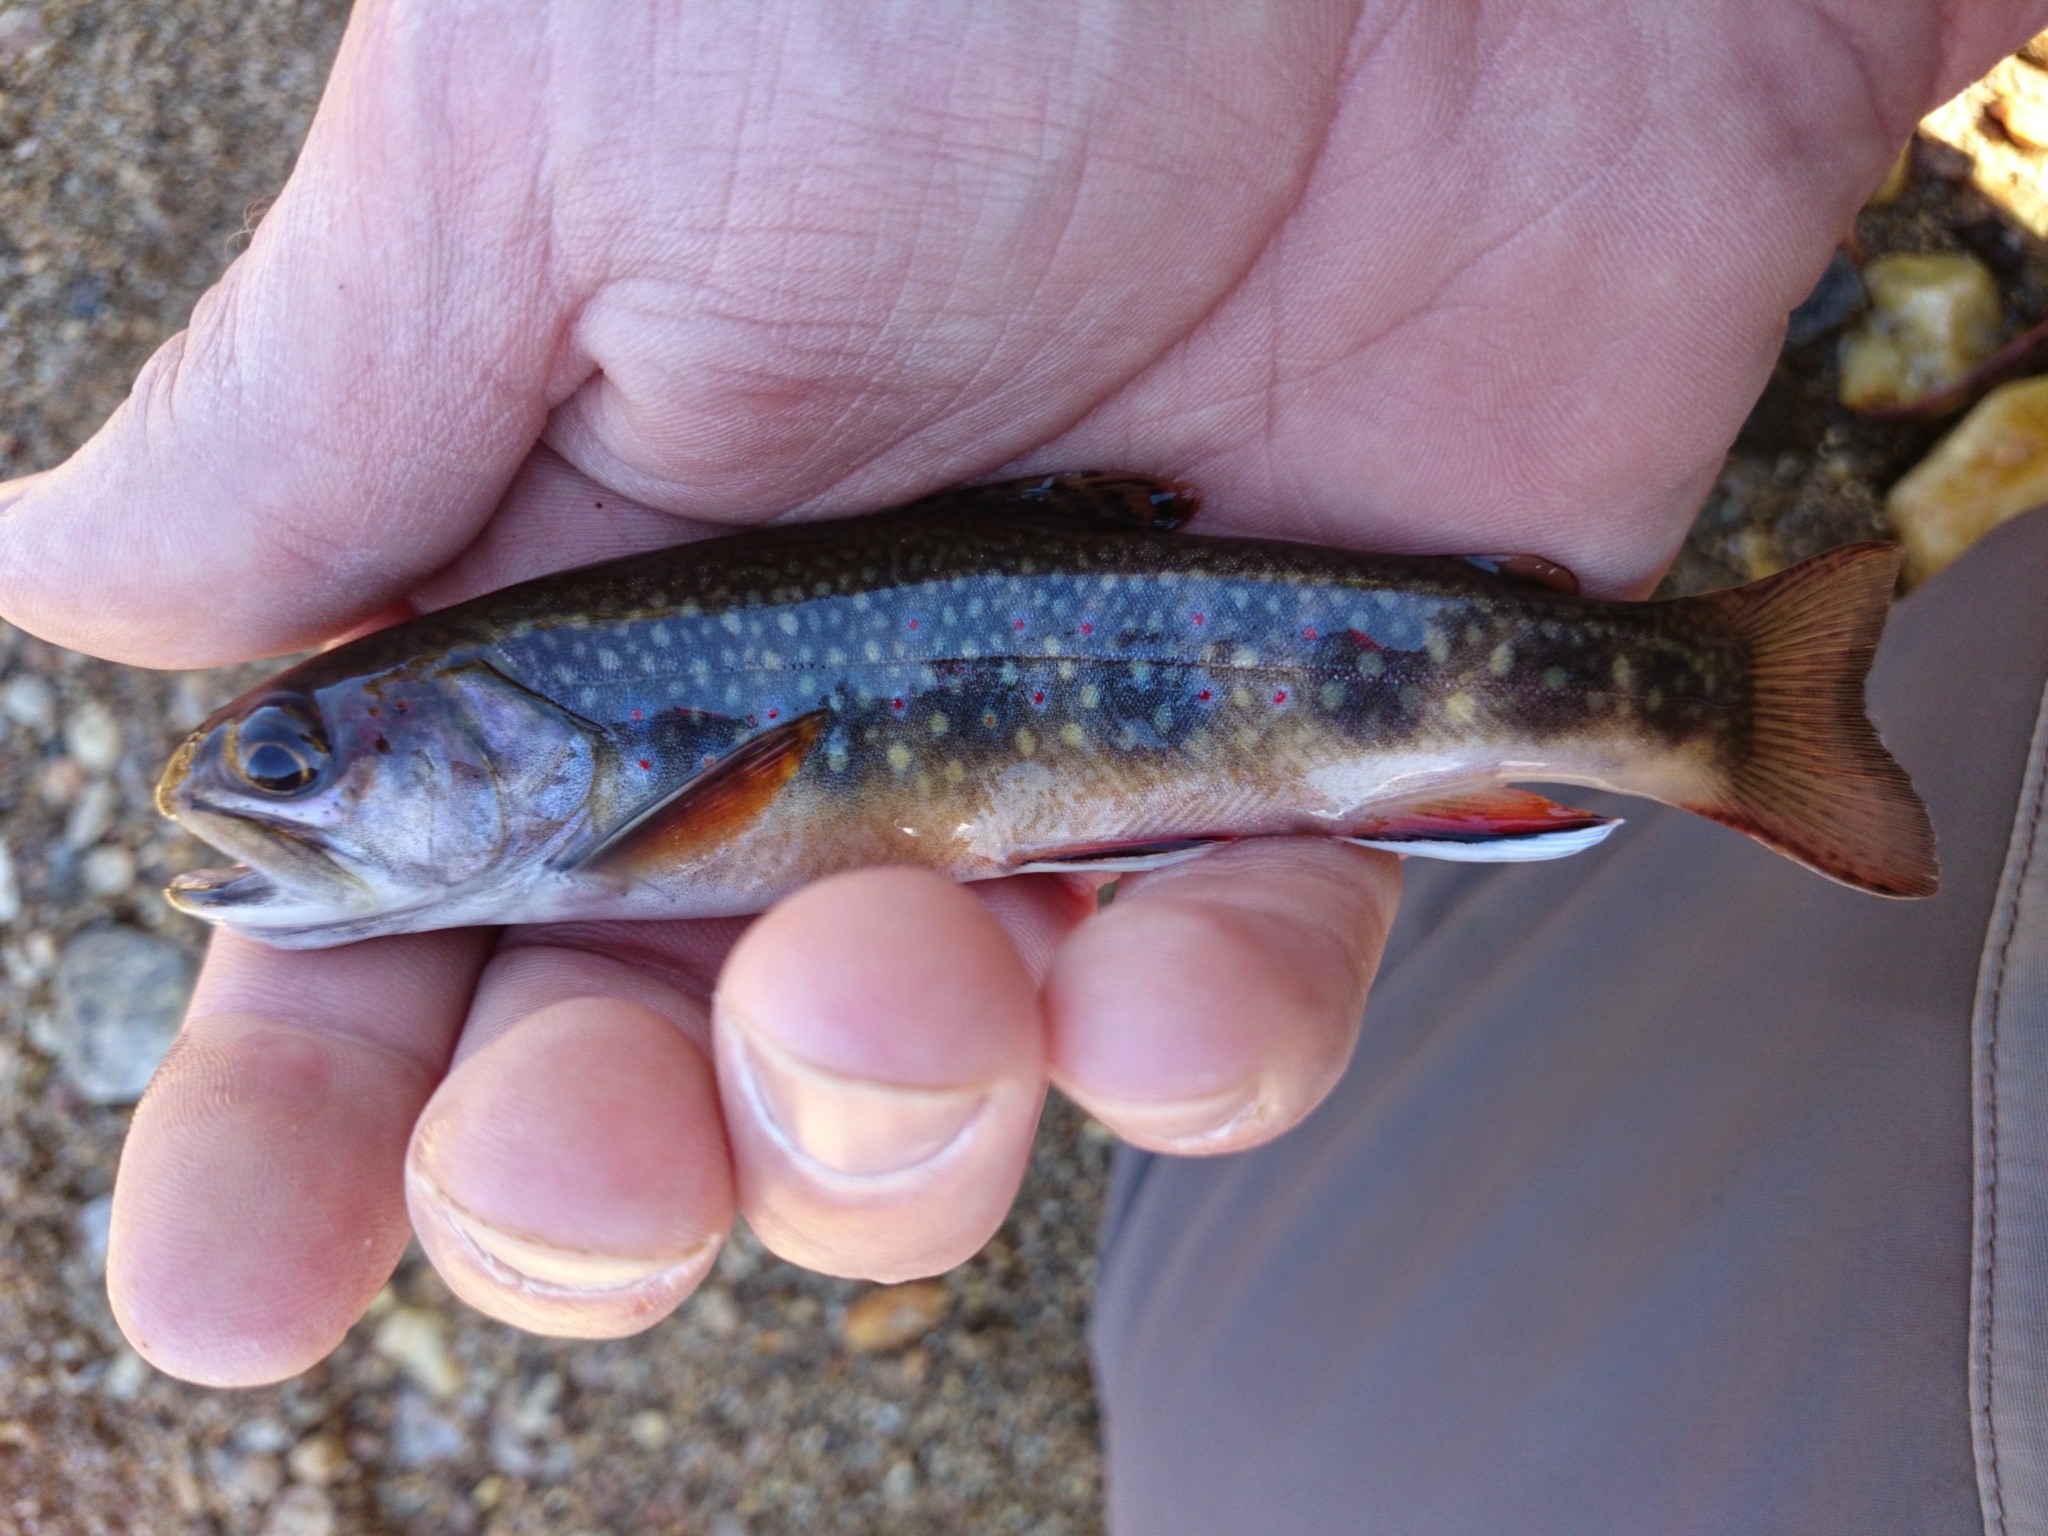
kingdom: Animalia
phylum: Chordata
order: Salmoniformes
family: Salmonidae
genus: Salvelinus
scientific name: Salvelinus fontinalis
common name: Brook trout
